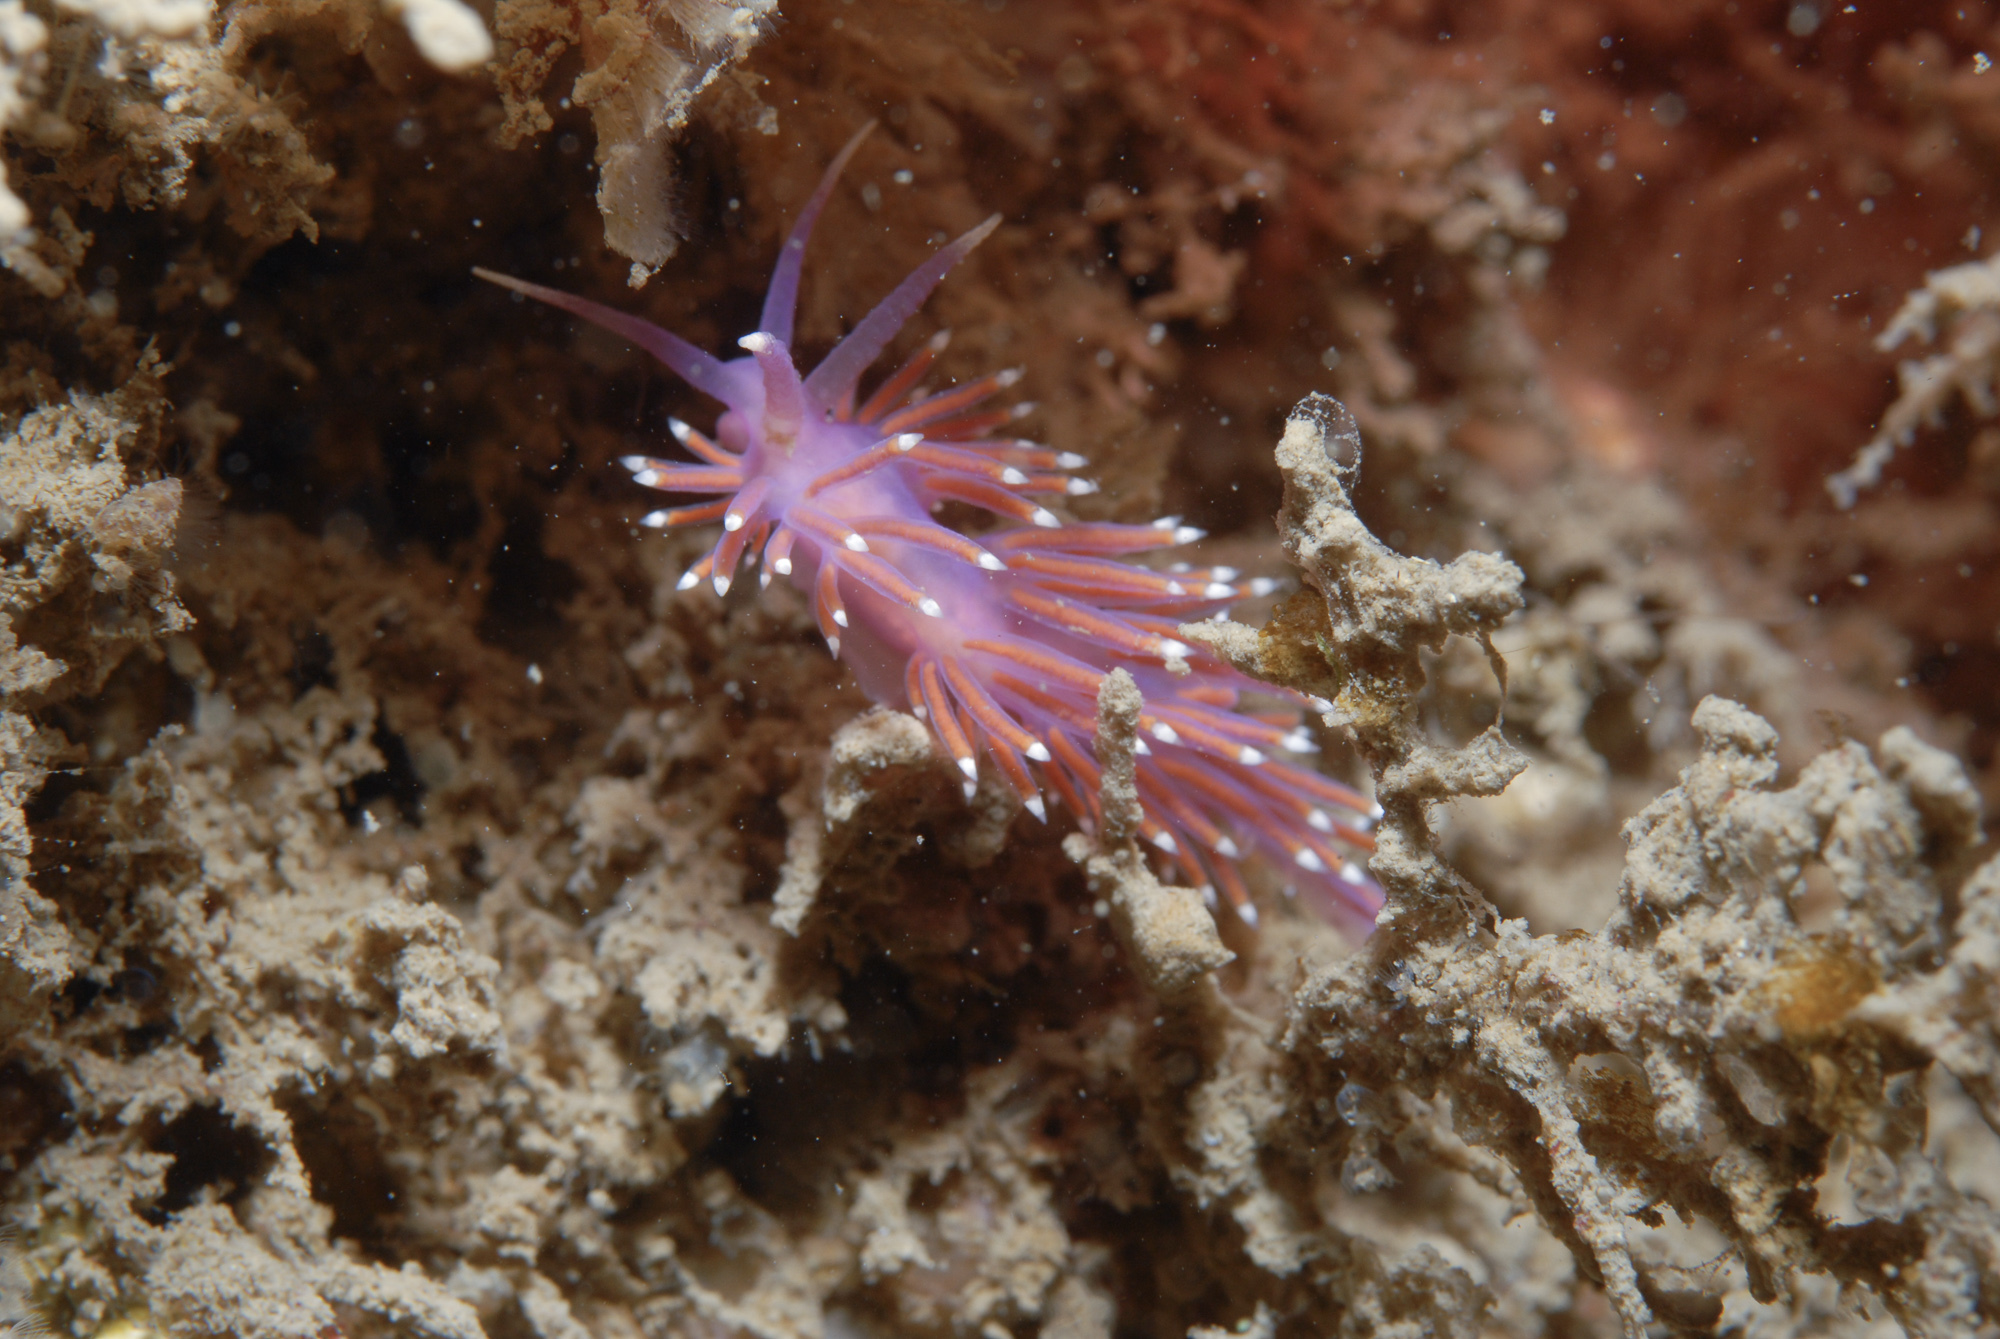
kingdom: Animalia
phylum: Mollusca
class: Gastropoda
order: Nudibranchia
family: Flabellinidae
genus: Edmundsella
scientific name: Edmundsella pedata
